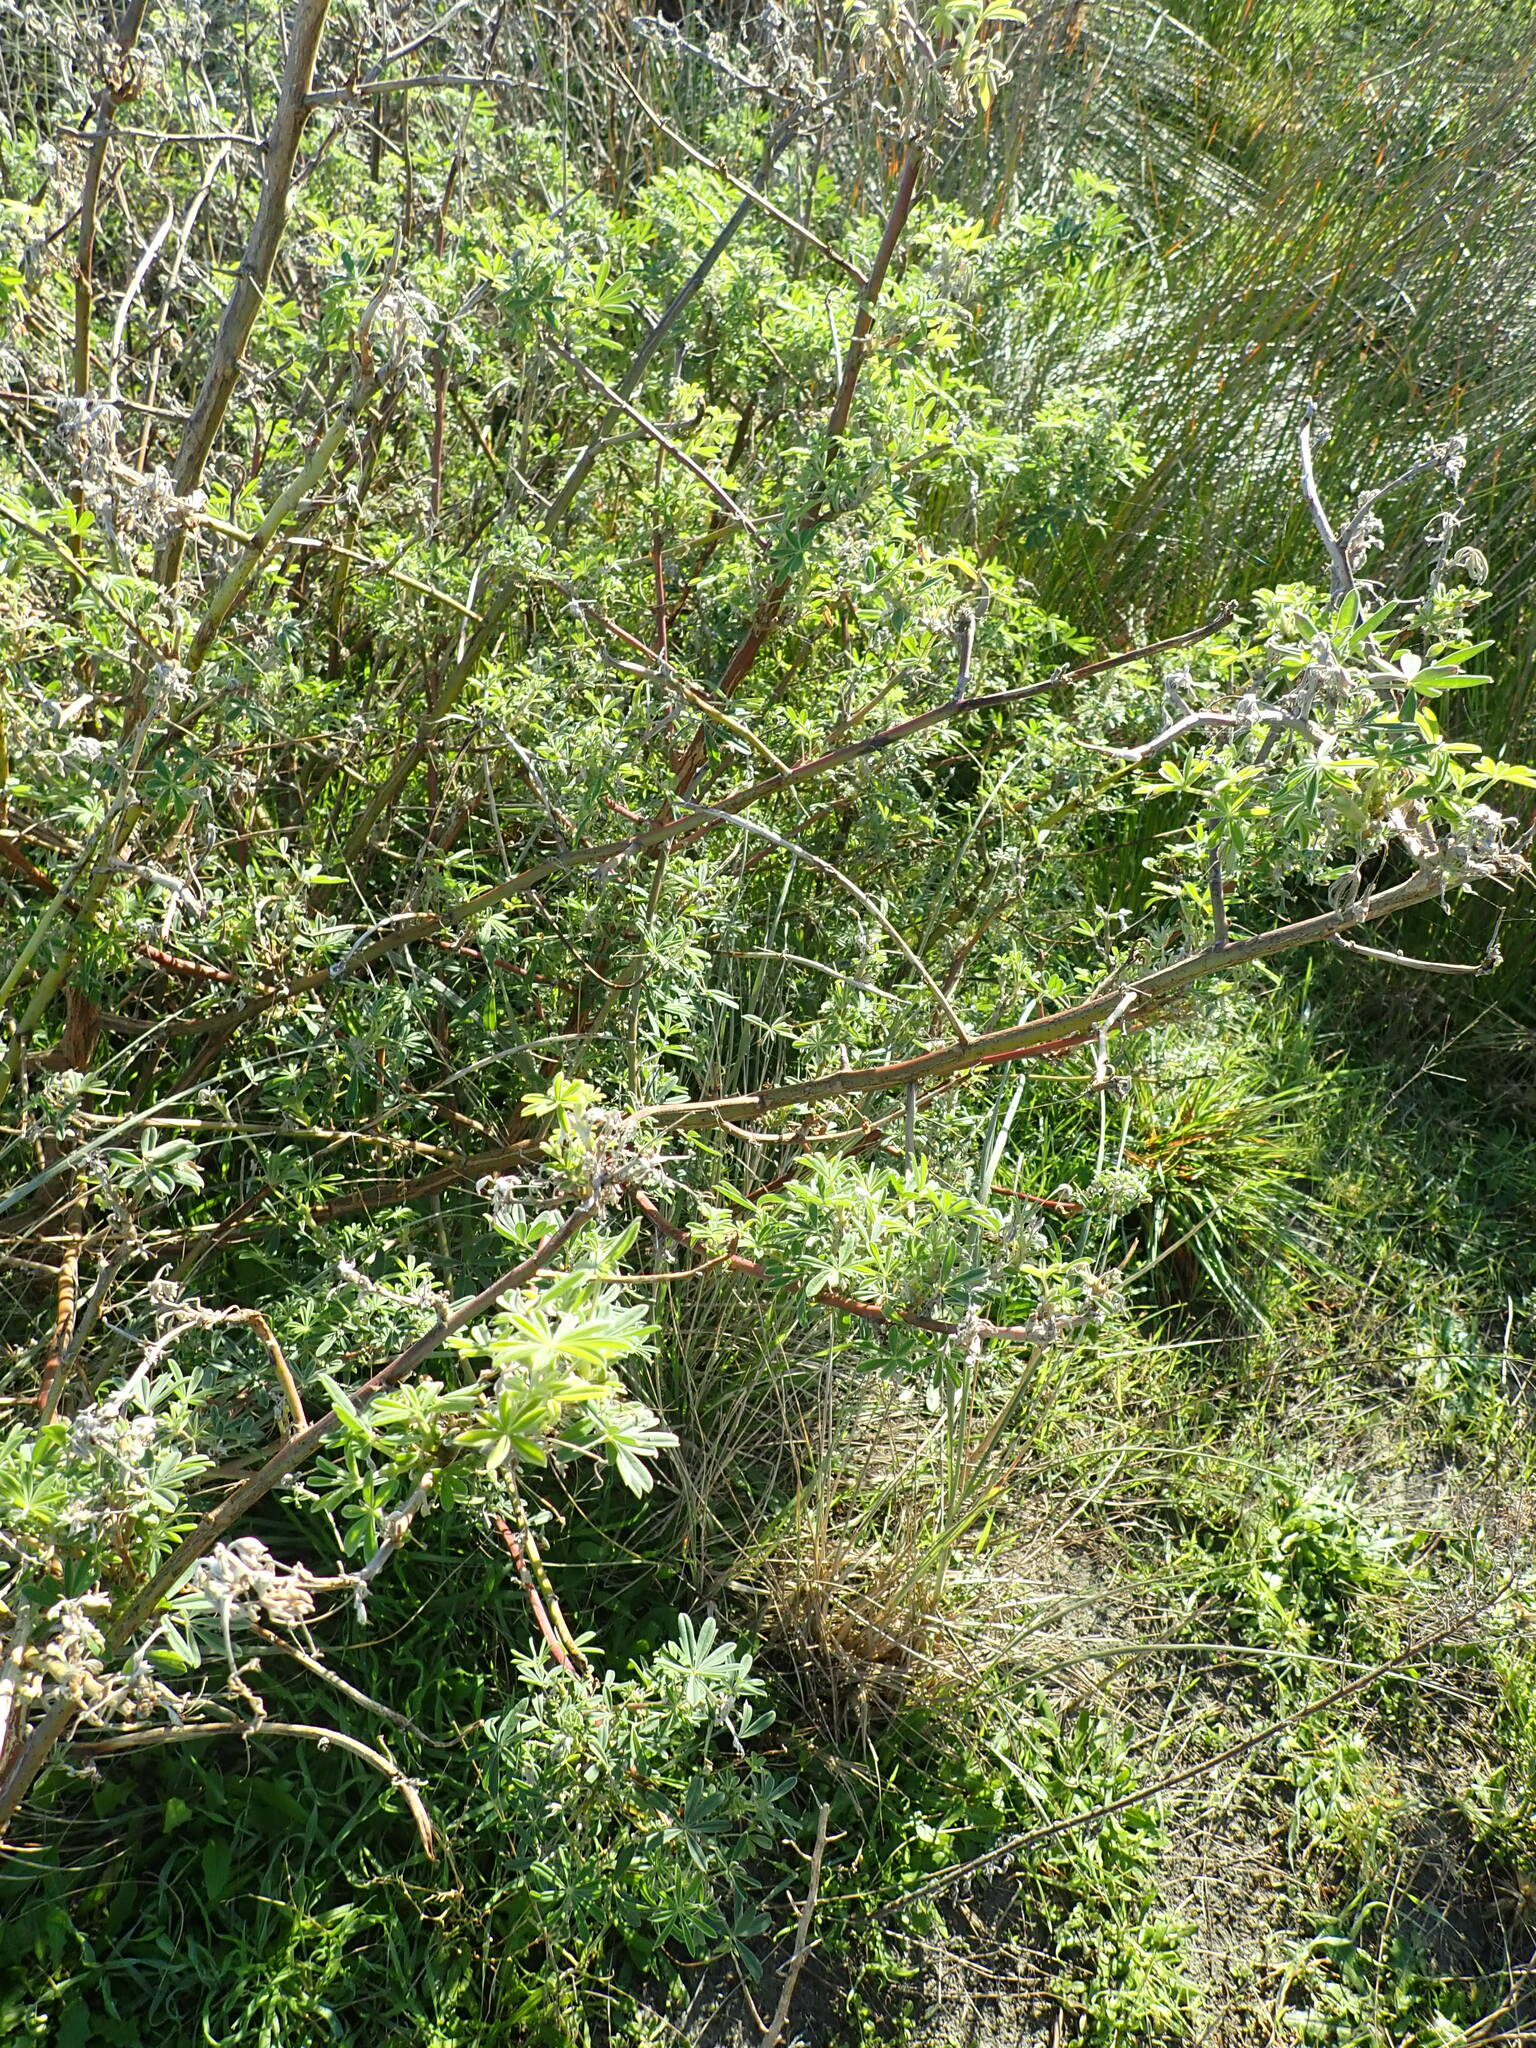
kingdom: Plantae
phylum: Tracheophyta
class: Magnoliopsida
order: Fabales
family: Fabaceae
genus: Lupinus
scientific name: Lupinus arboreus
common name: Yellow bush lupine
